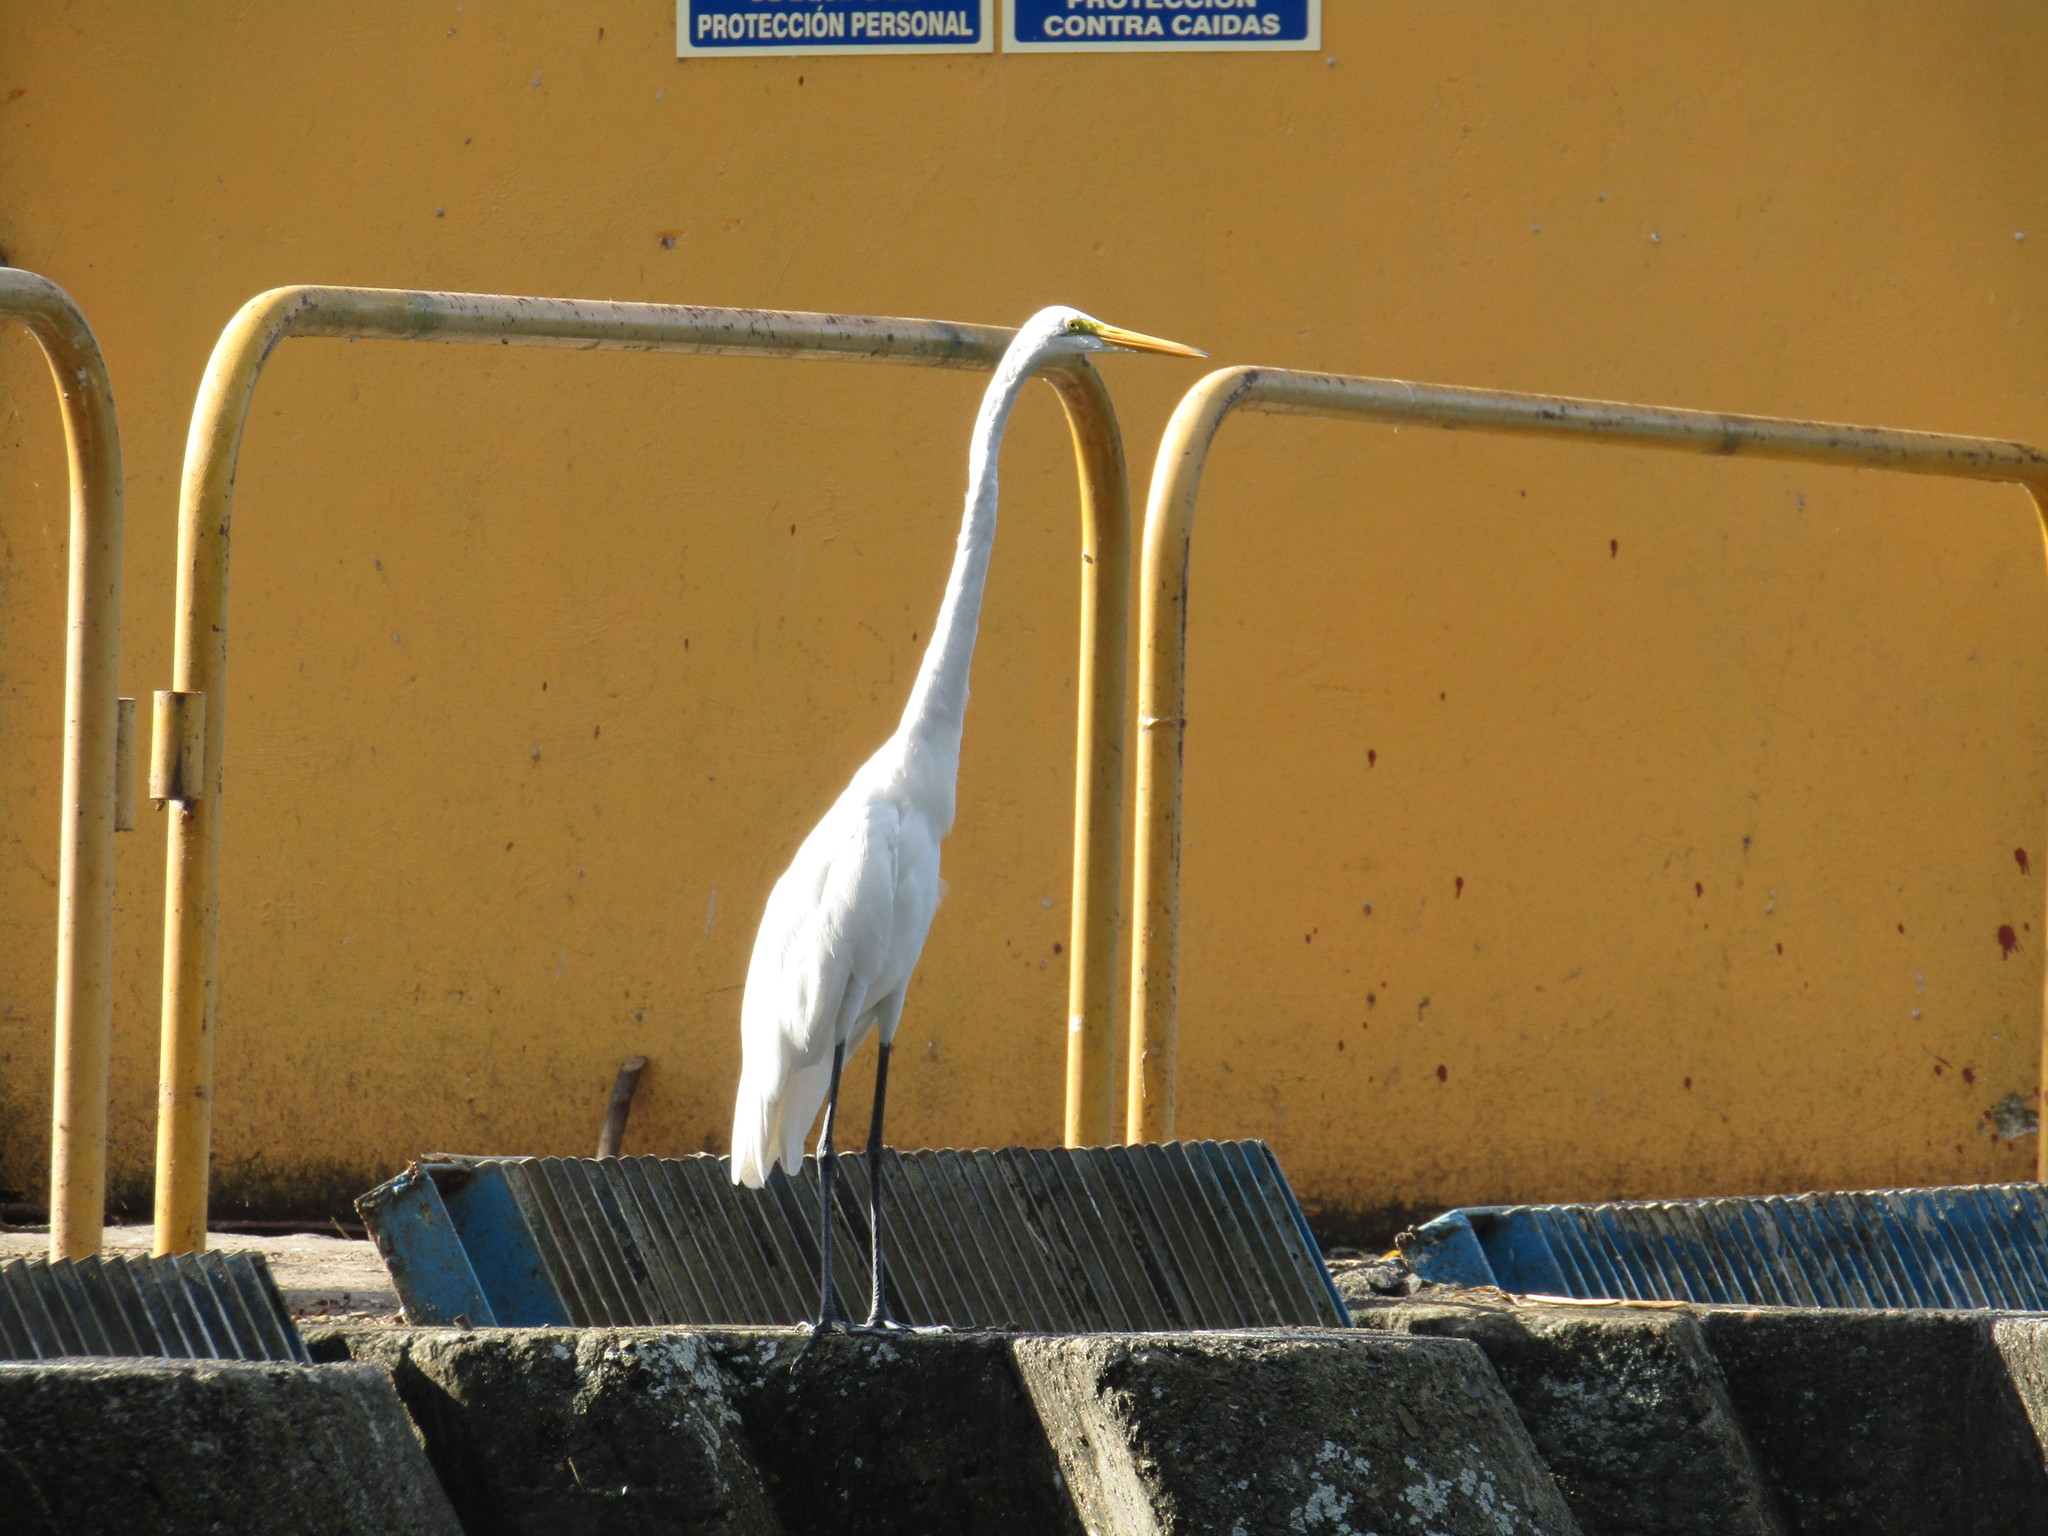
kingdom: Animalia
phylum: Chordata
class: Aves
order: Pelecaniformes
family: Ardeidae
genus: Ardea
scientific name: Ardea alba
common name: Great egret
